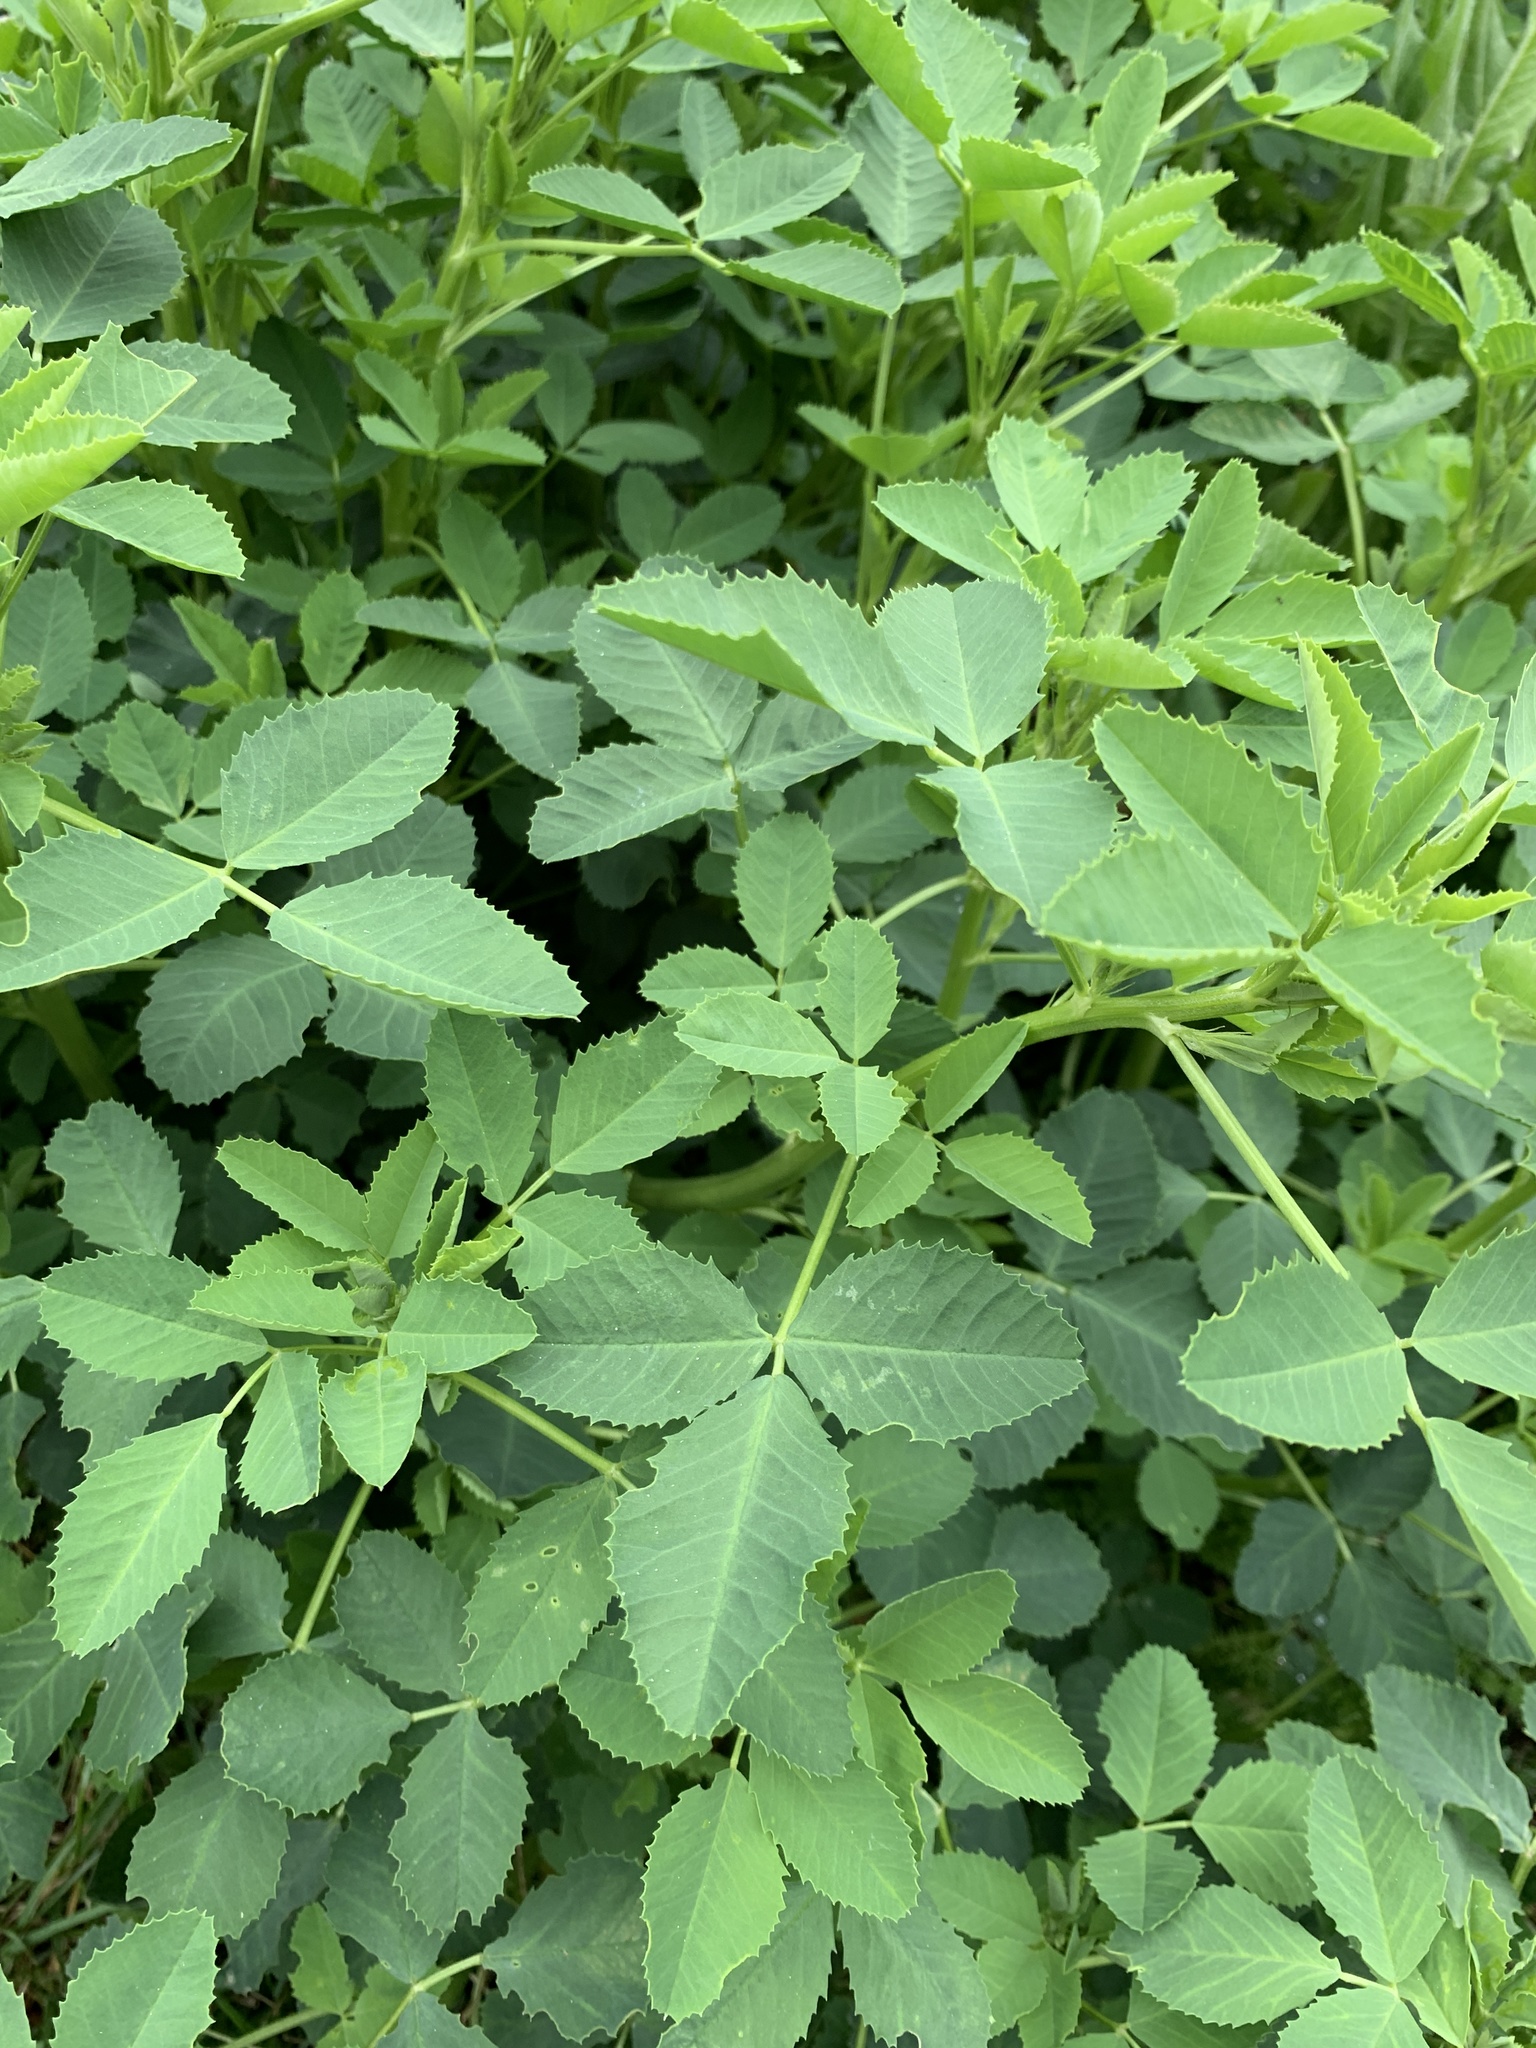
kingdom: Plantae
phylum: Tracheophyta
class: Magnoliopsida
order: Fabales
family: Fabaceae
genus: Medicago
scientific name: Medicago sativa
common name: Alfalfa
